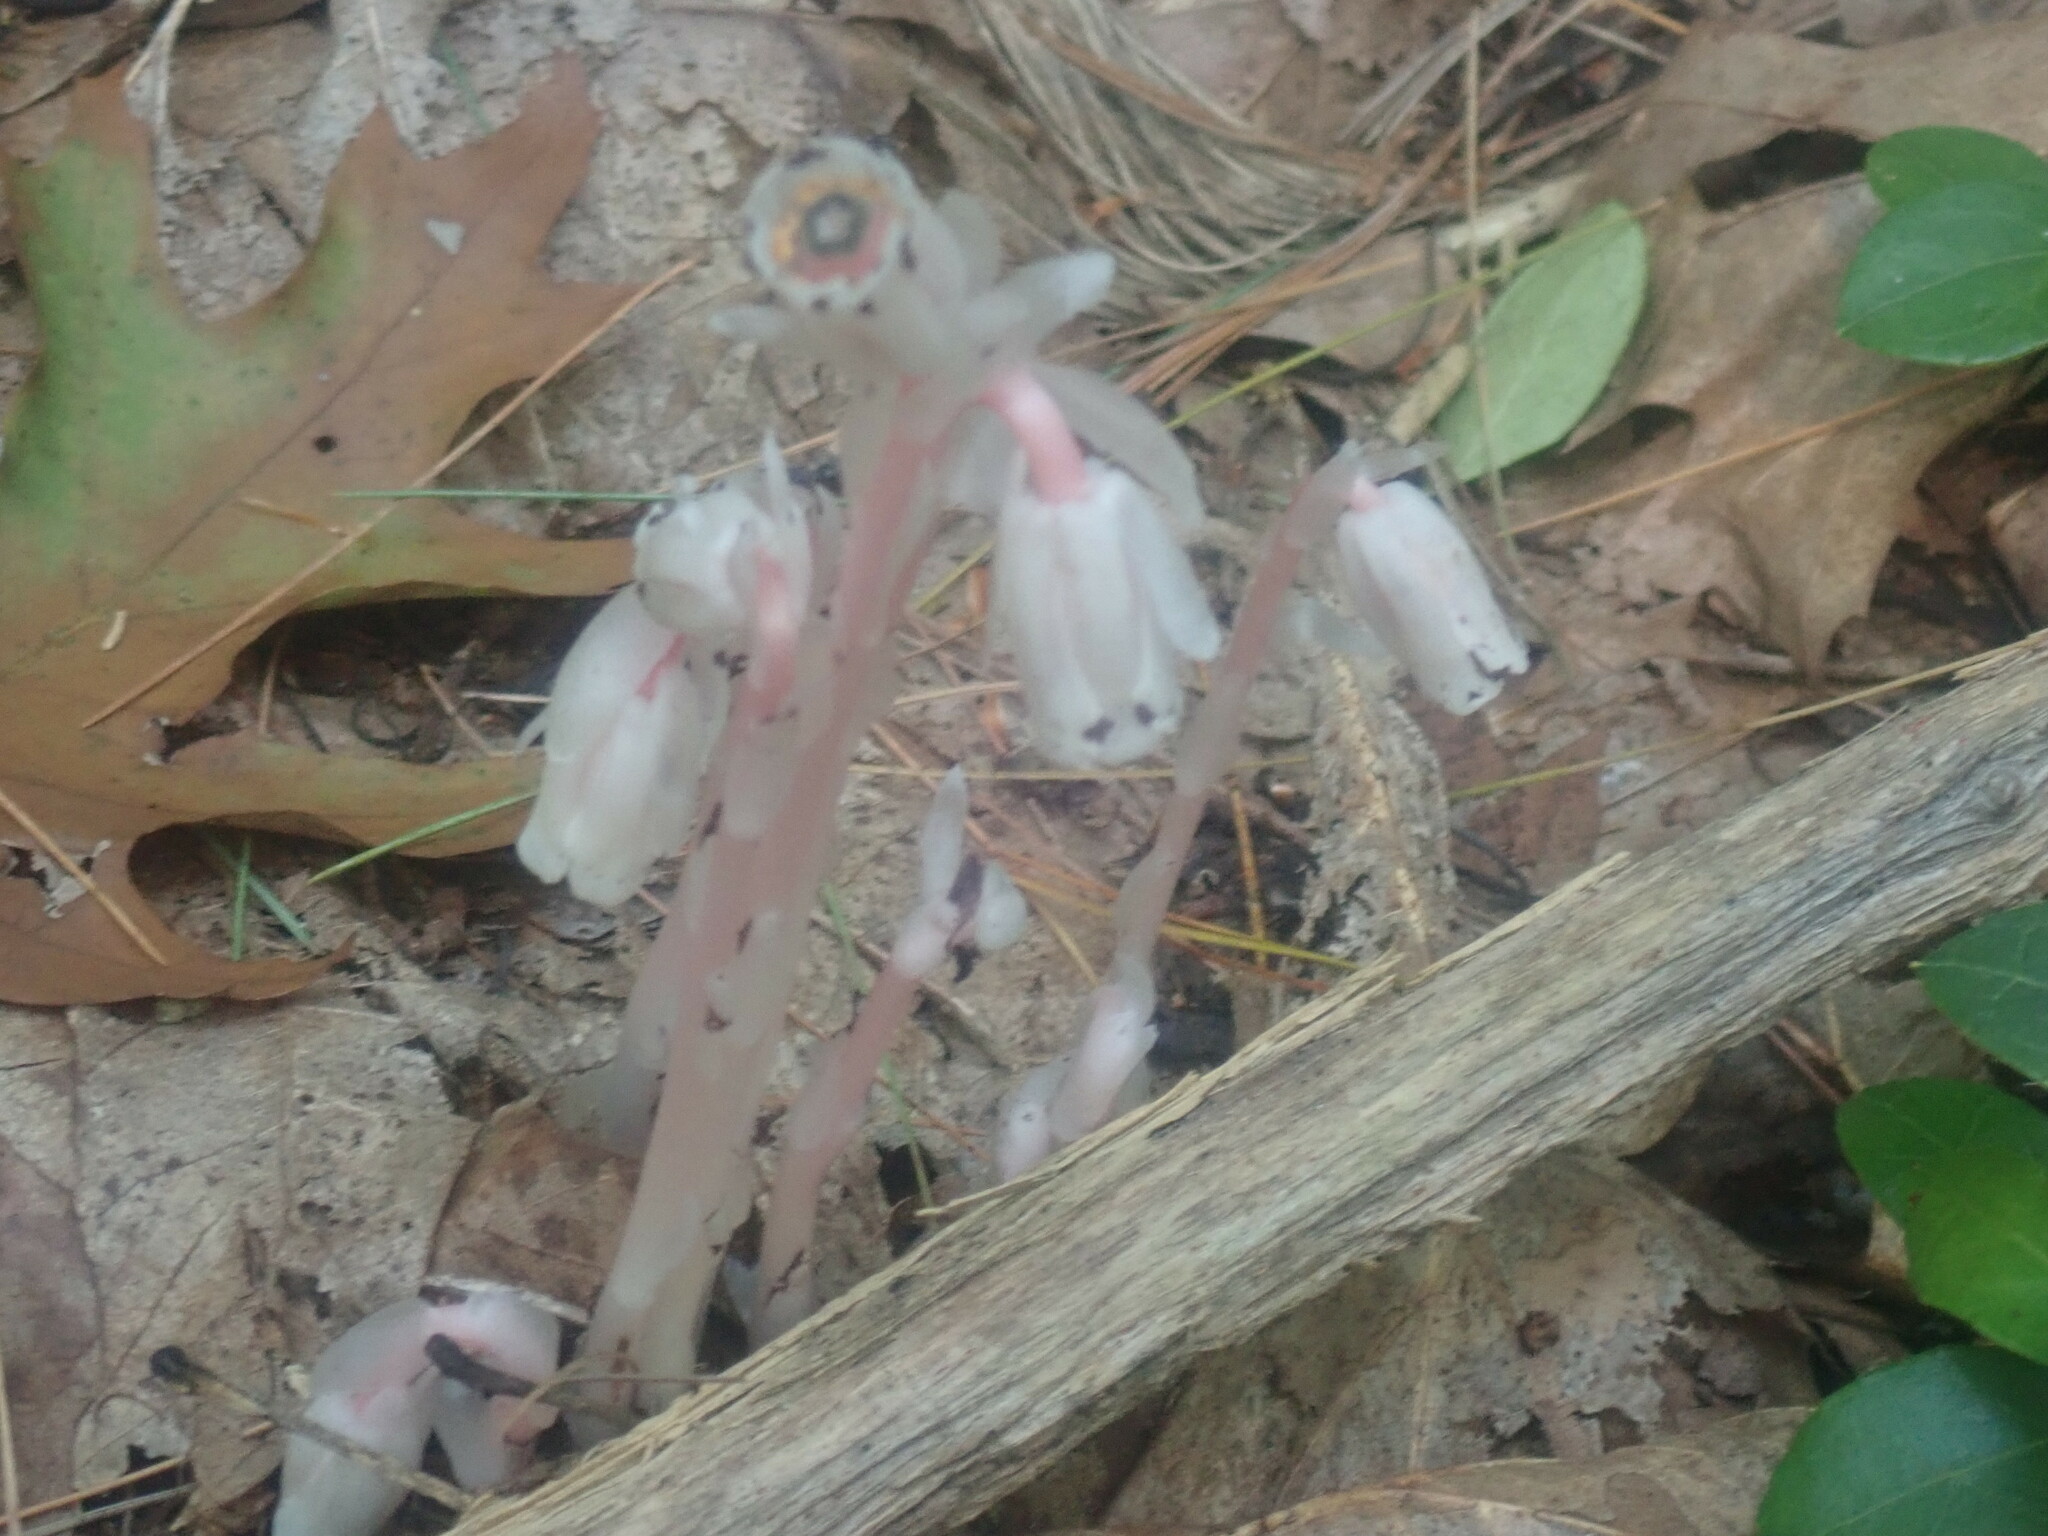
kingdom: Plantae
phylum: Tracheophyta
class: Magnoliopsida
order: Ericales
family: Ericaceae
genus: Monotropa
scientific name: Monotropa uniflora
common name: Convulsion root
